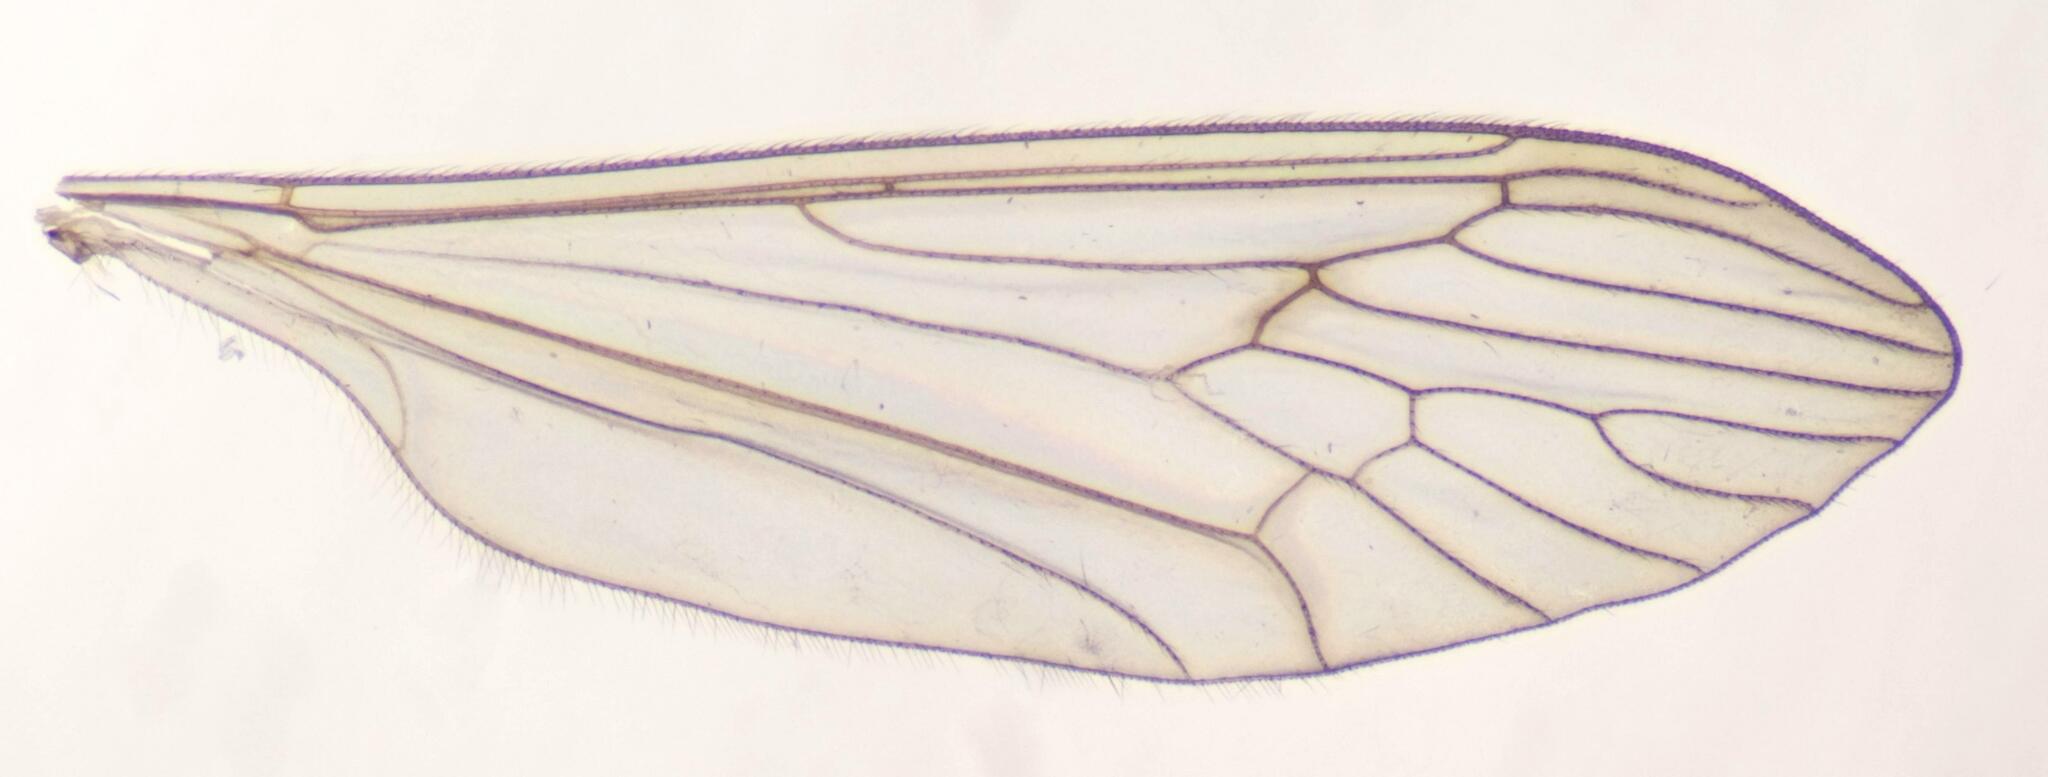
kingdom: Animalia
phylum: Arthropoda
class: Insecta
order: Diptera
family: Trichoceridae
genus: Trichocera
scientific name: Trichocera regelationis
